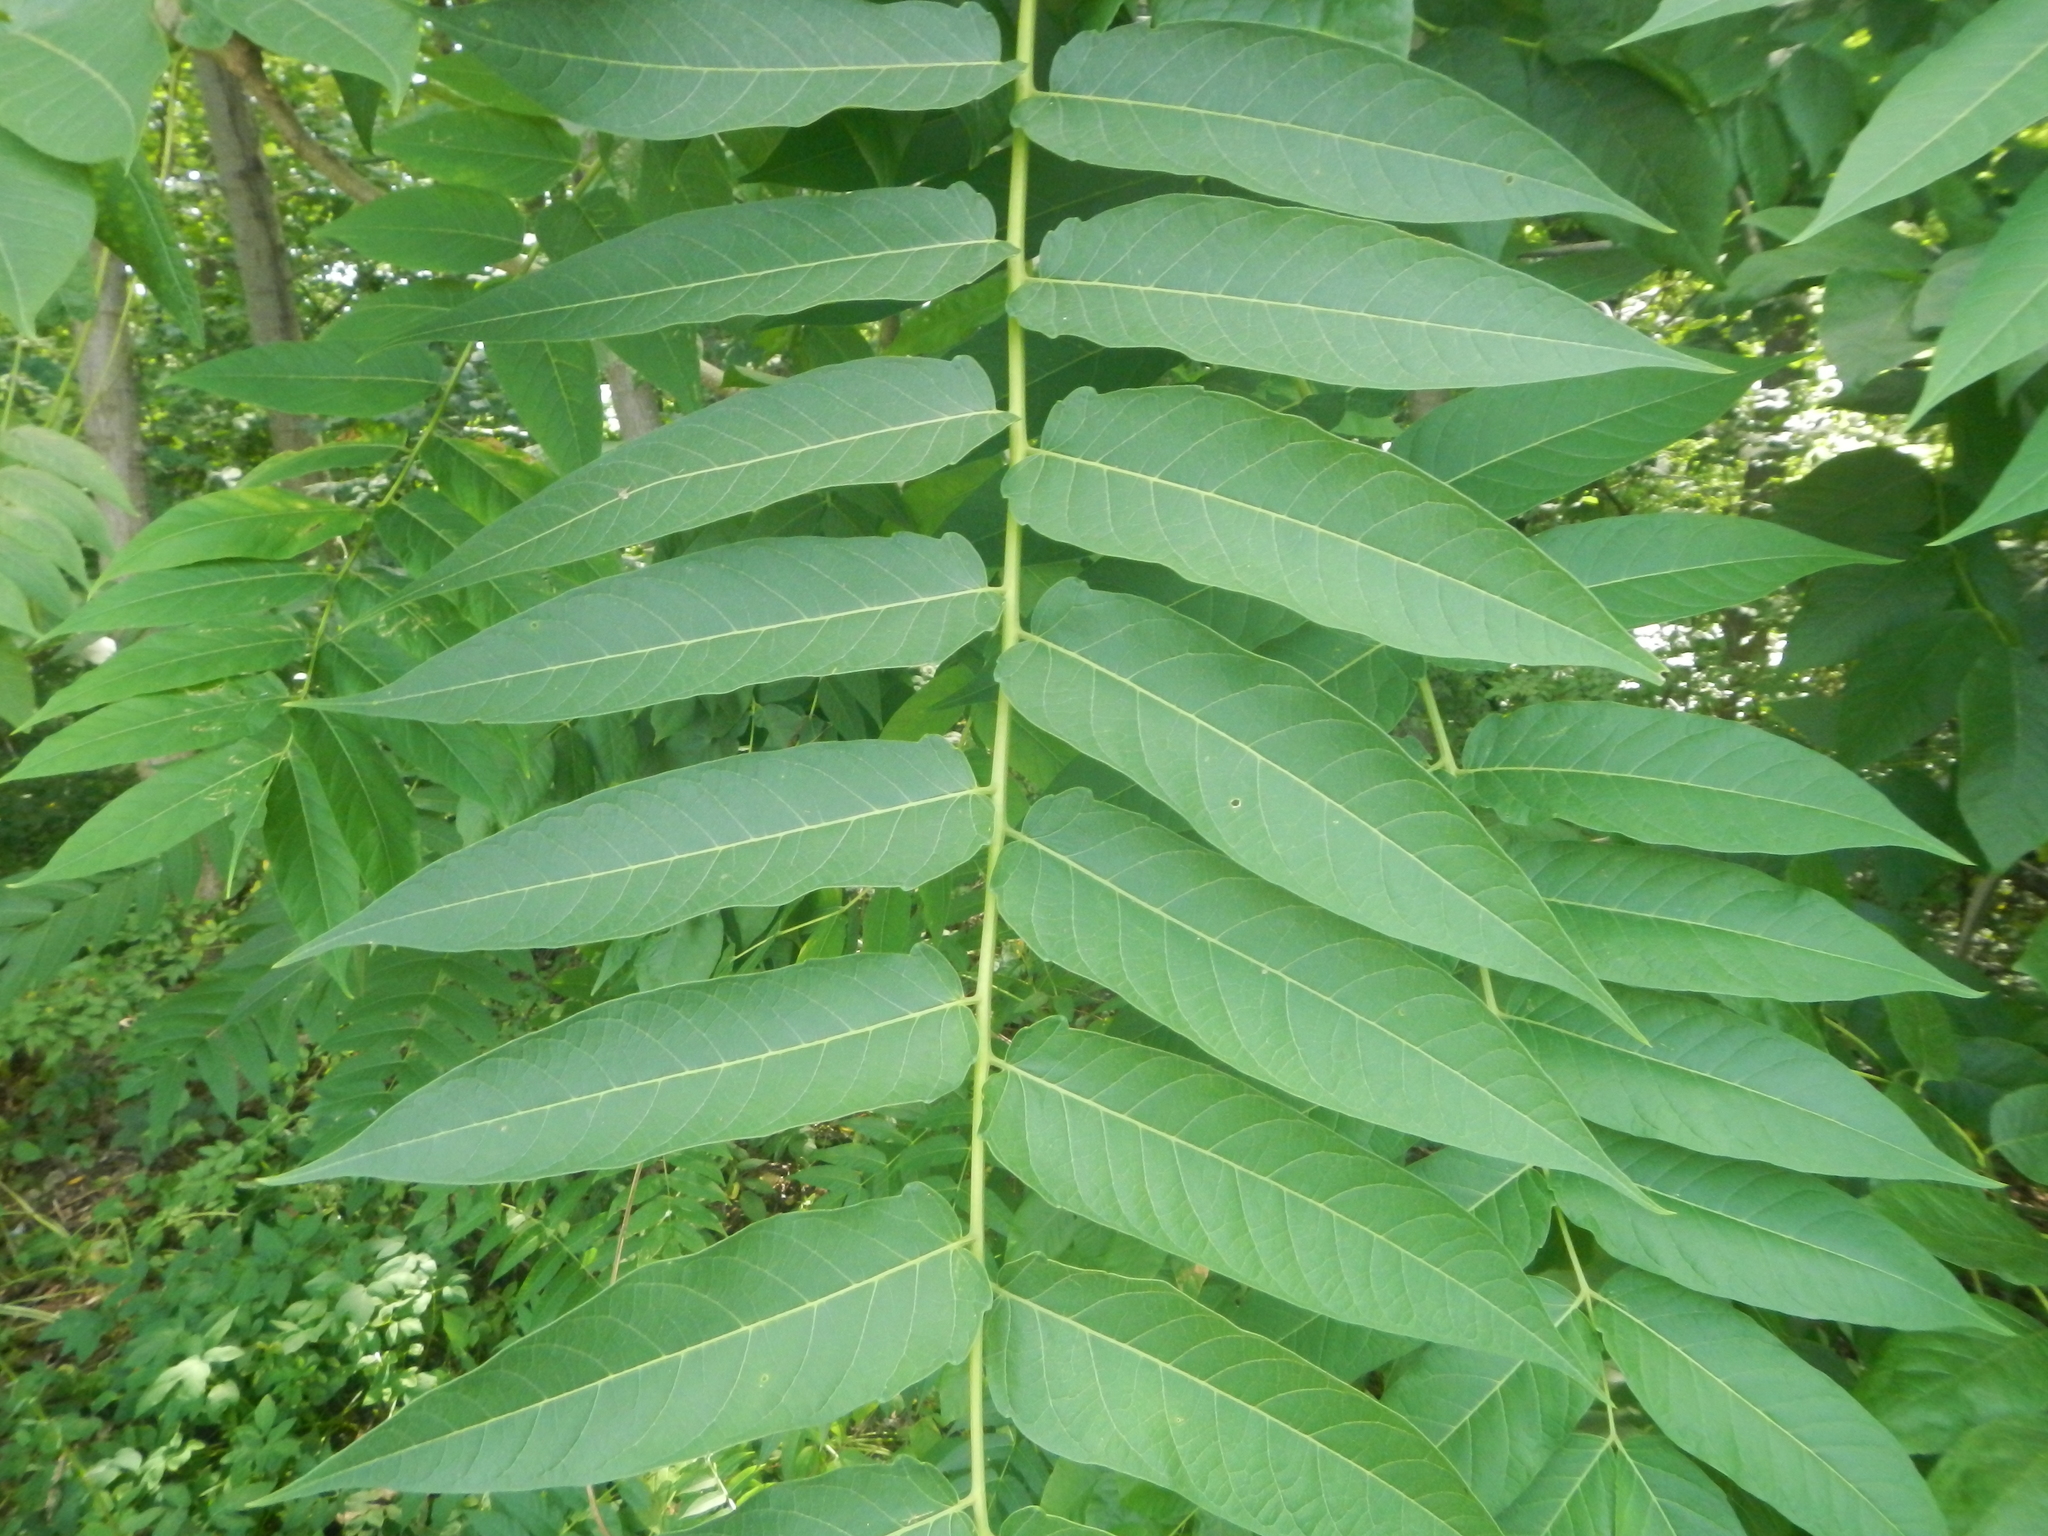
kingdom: Plantae
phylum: Tracheophyta
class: Magnoliopsida
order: Sapindales
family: Simaroubaceae
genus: Ailanthus
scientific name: Ailanthus altissima
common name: Tree-of-heaven
